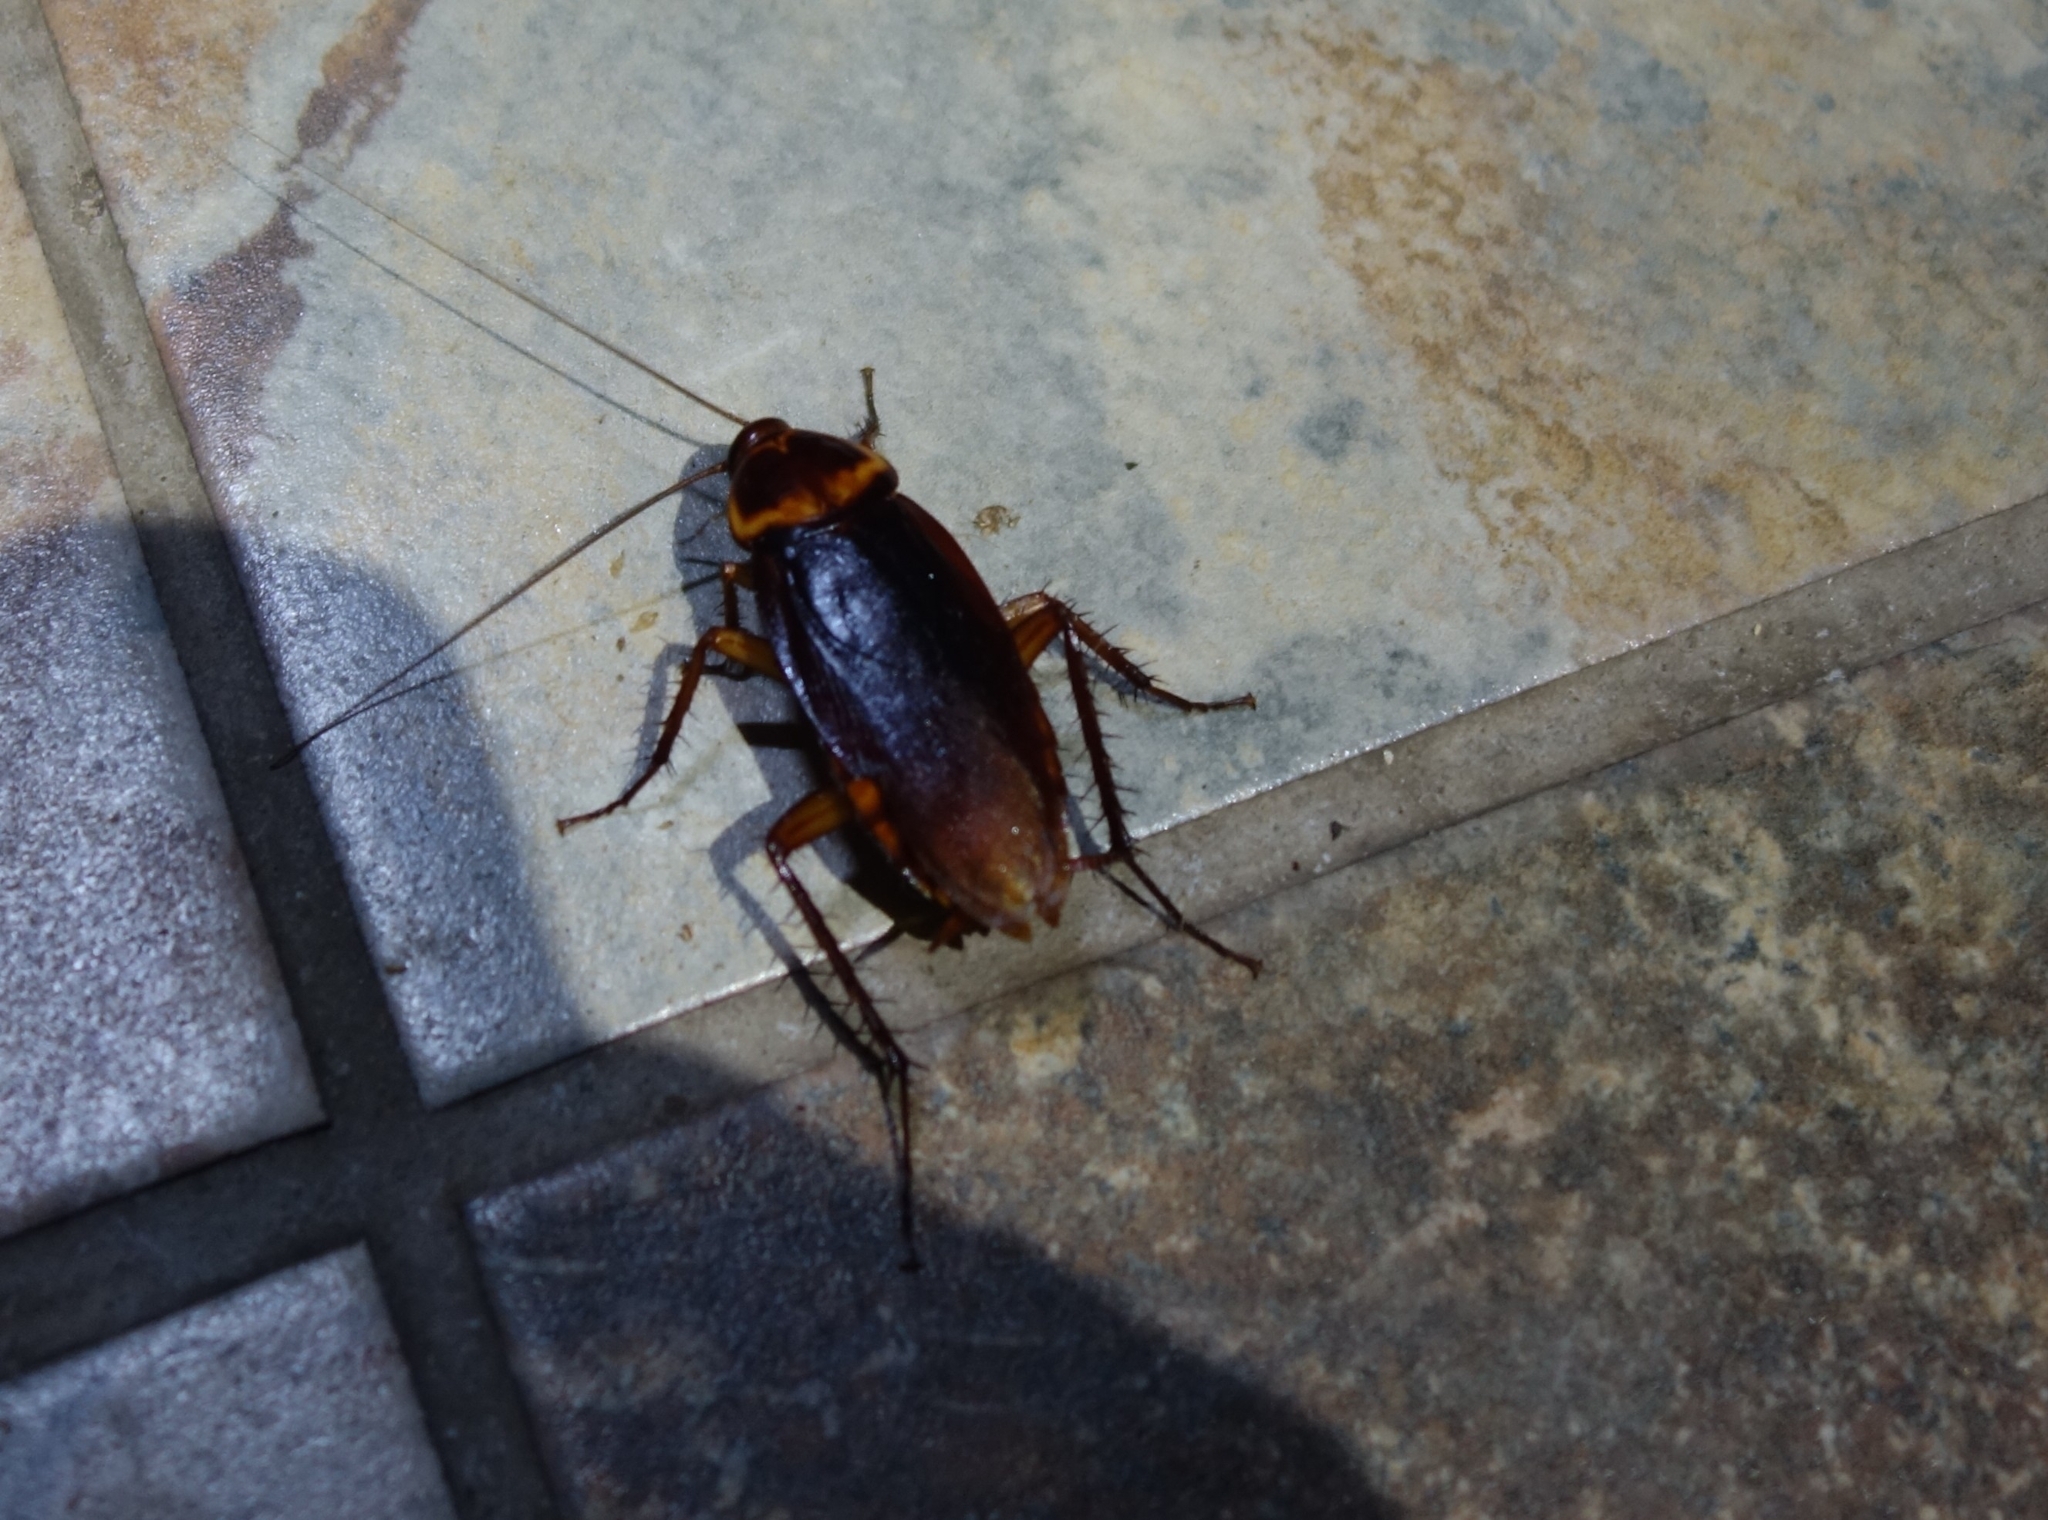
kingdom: Animalia
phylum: Arthropoda
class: Insecta
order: Blattodea
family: Blattidae
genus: Periplaneta
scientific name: Periplaneta americana
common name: American cockroach
